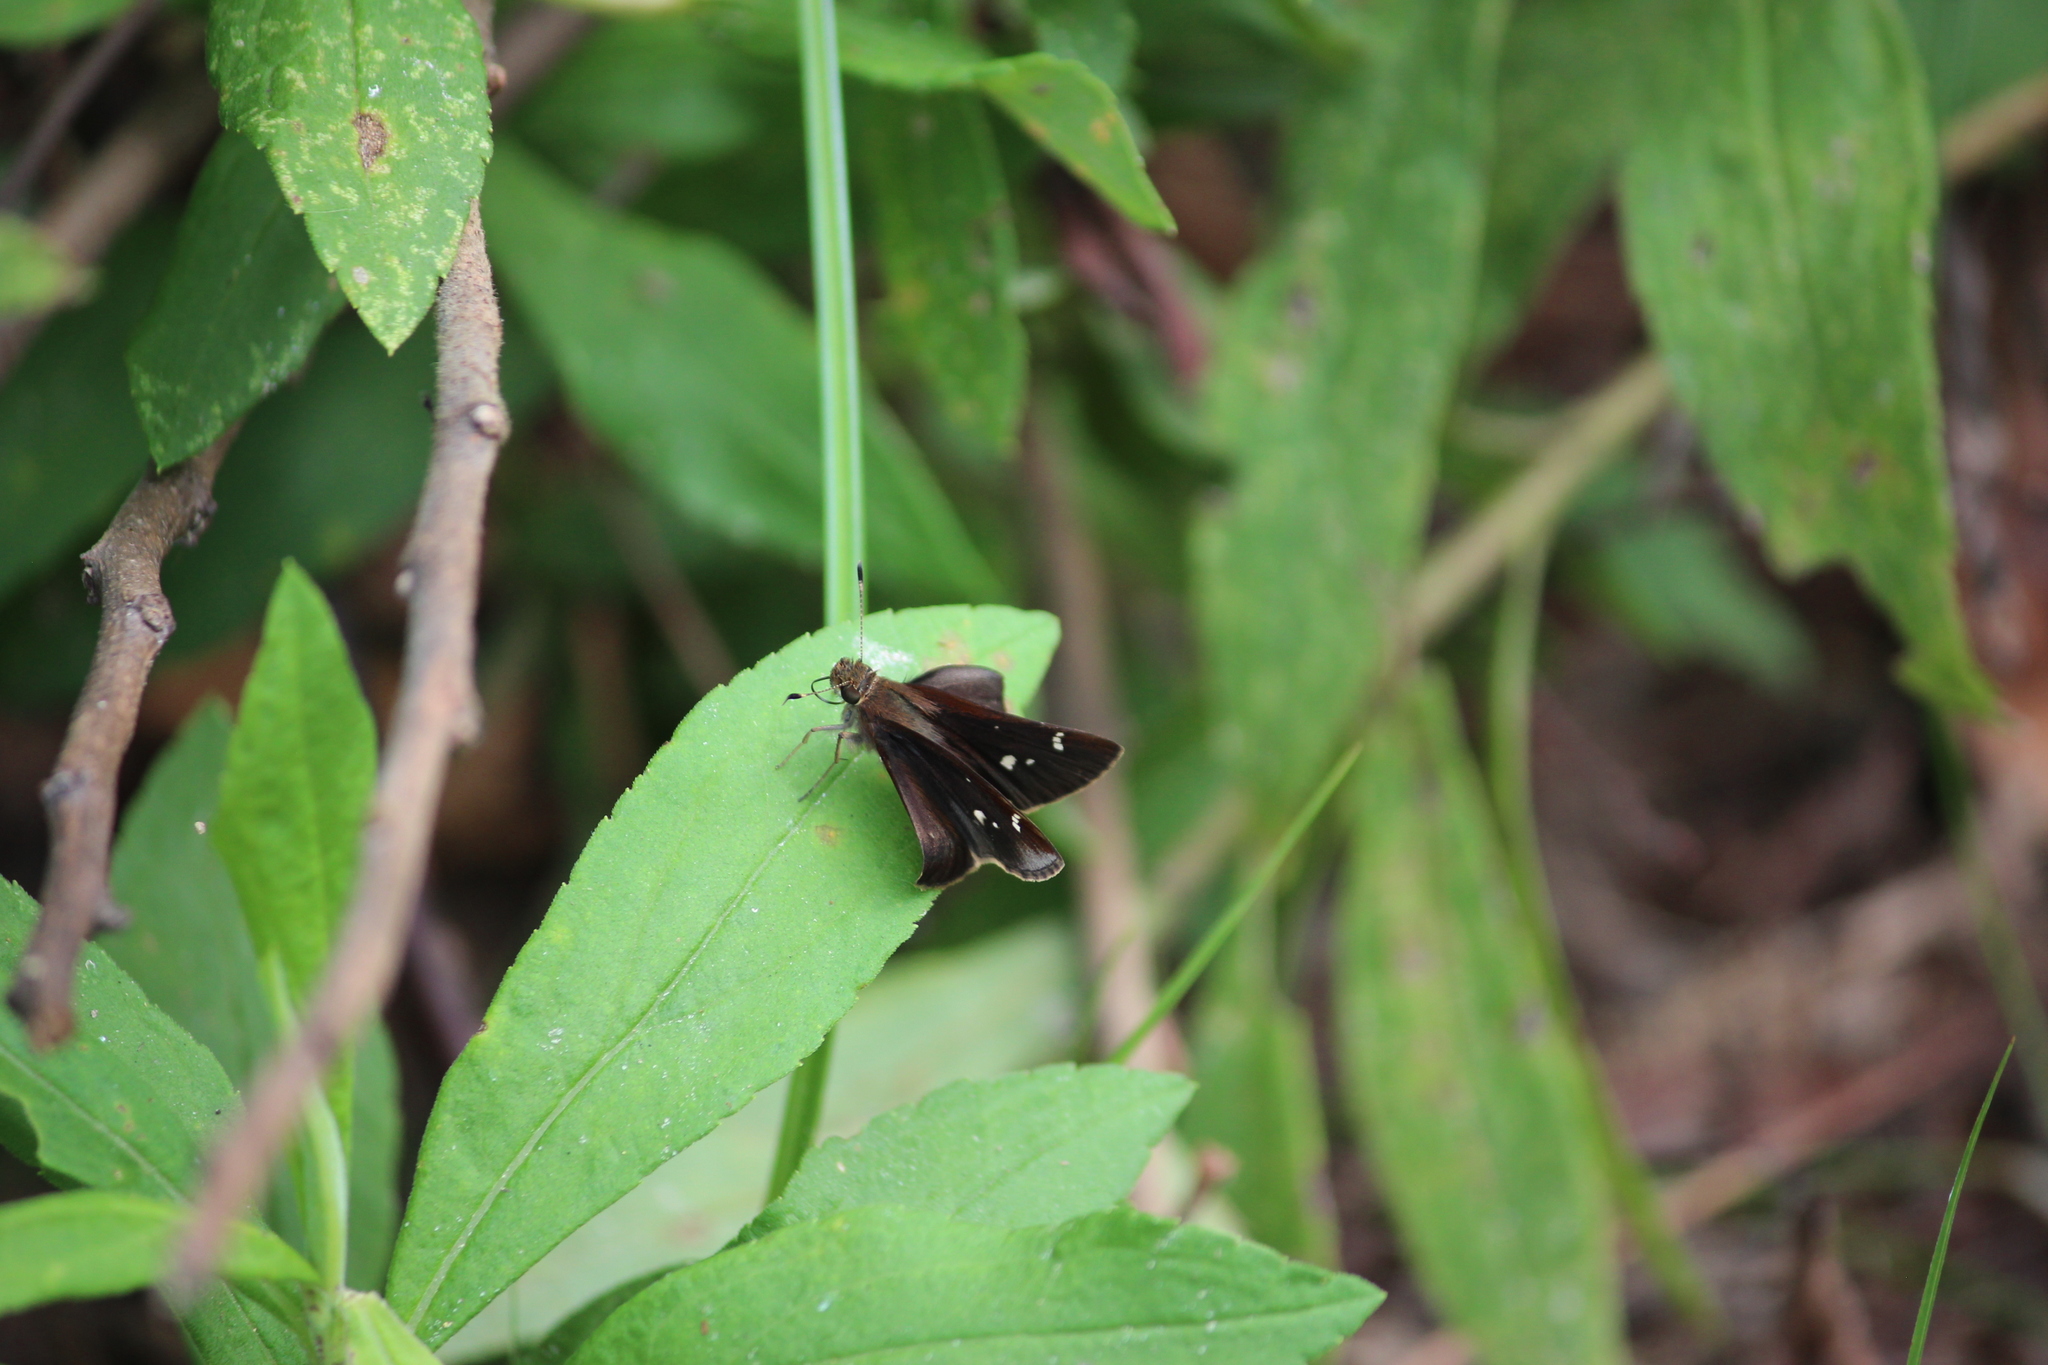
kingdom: Animalia
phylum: Arthropoda
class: Insecta
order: Lepidoptera
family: Hesperiidae
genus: Lerema
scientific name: Lerema accius
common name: Clouded skipper
